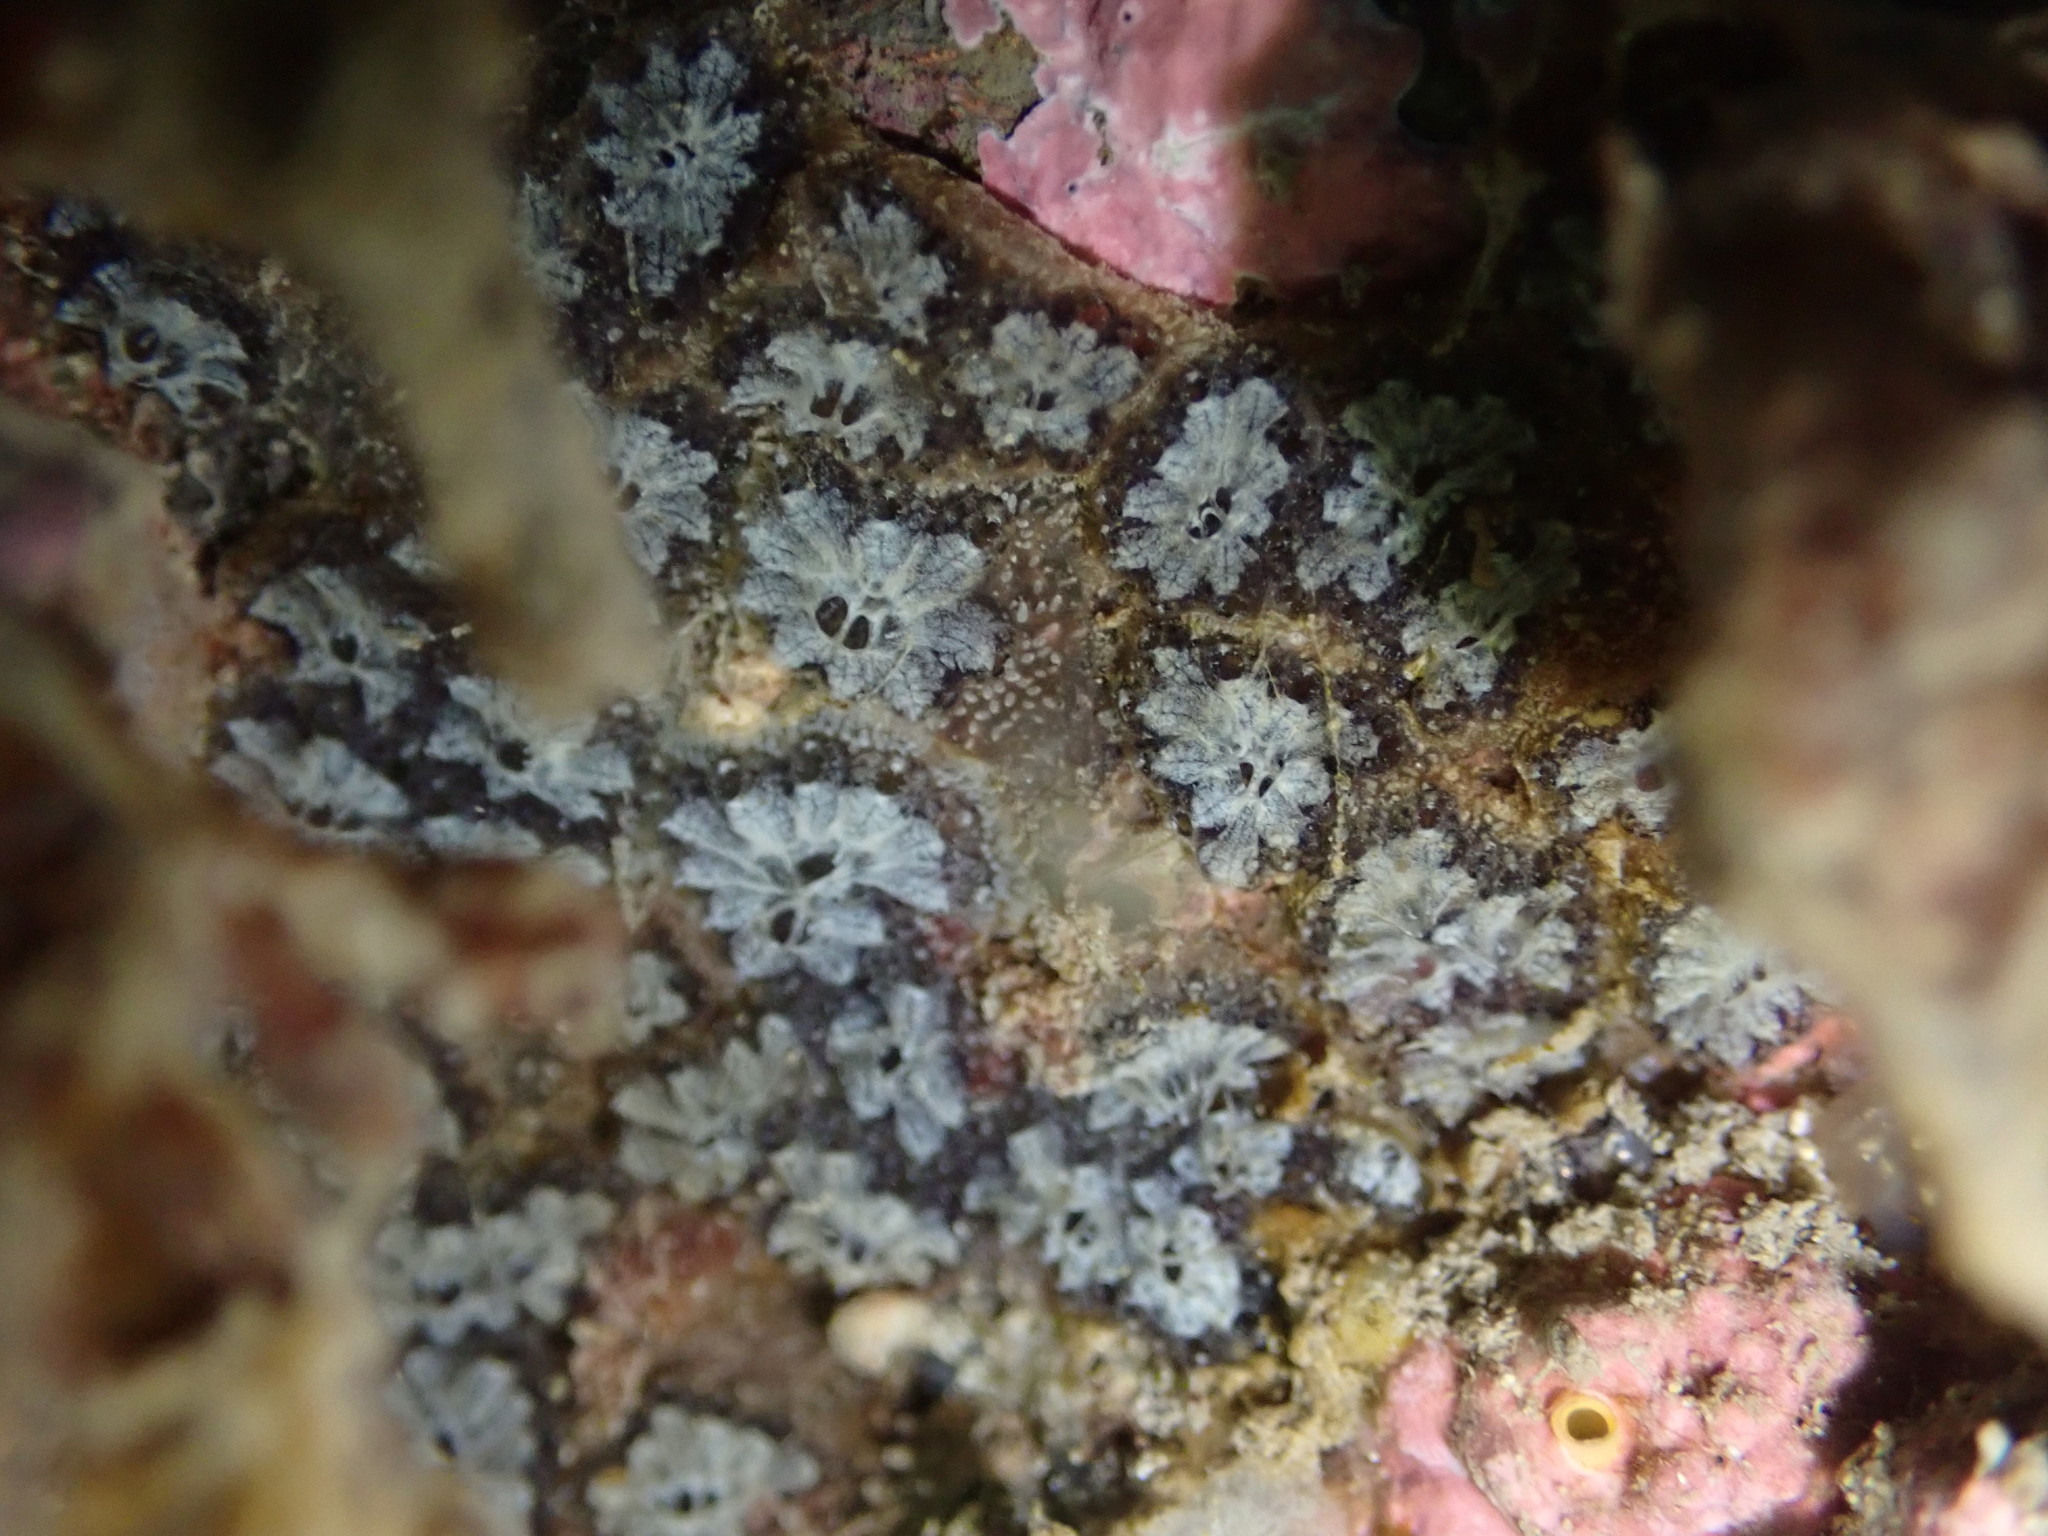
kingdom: Animalia
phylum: Chordata
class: Ascidiacea
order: Stolidobranchia
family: Styelidae
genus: Botryllus
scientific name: Botryllus schlosseri
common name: Golden star tunicate
